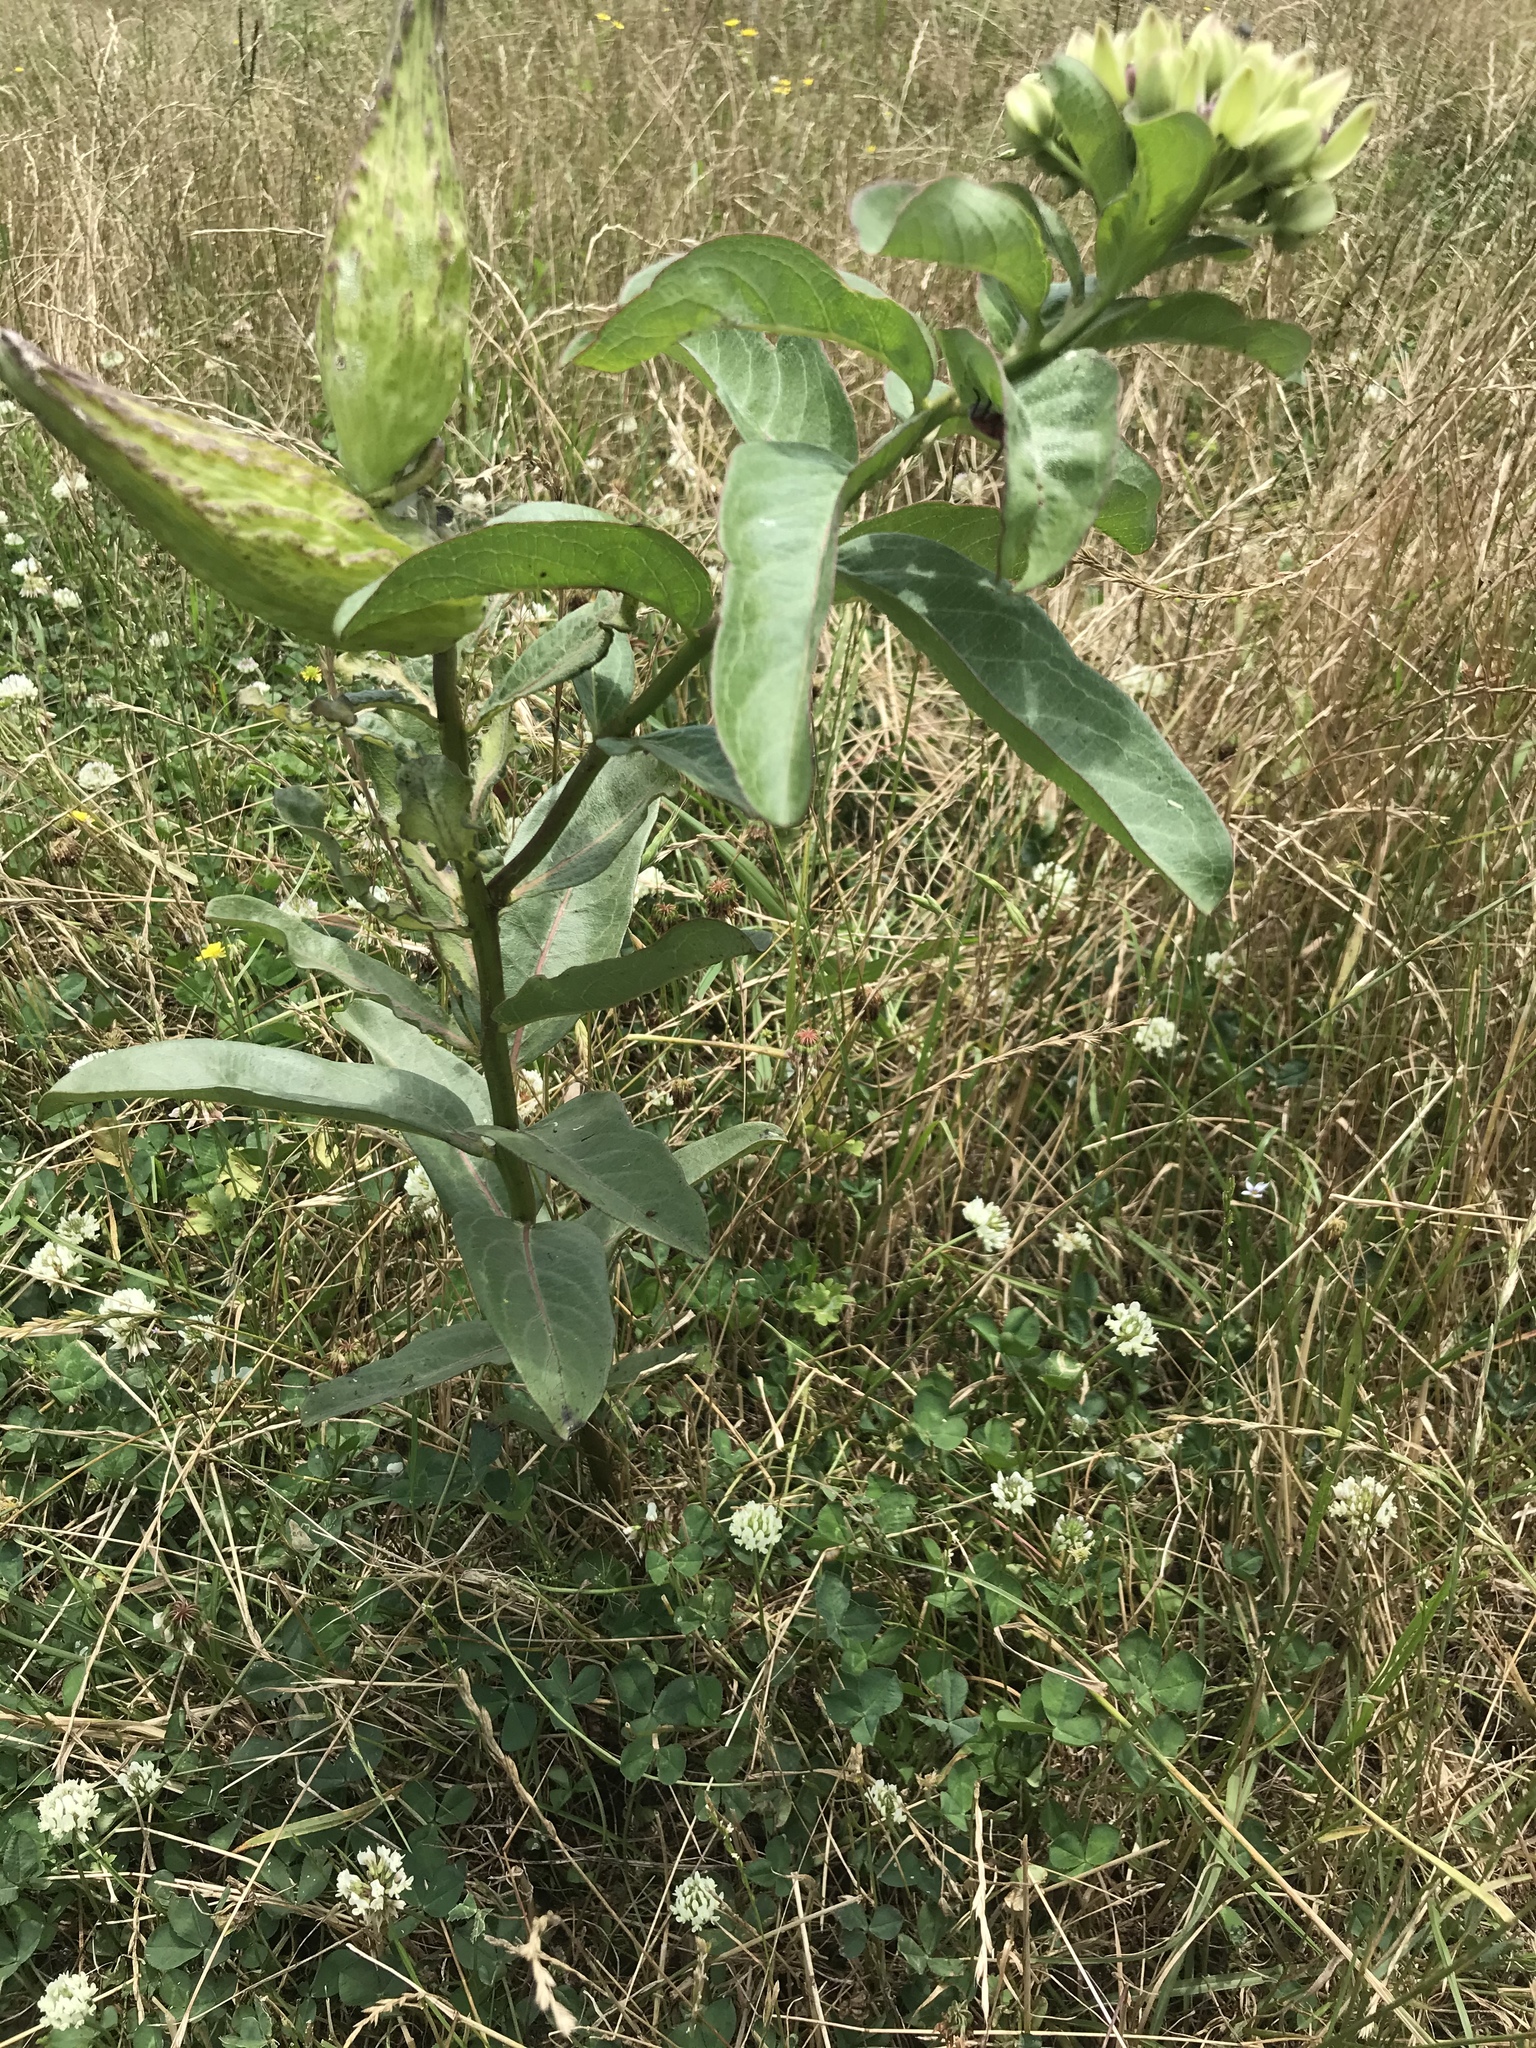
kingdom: Plantae
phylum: Tracheophyta
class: Magnoliopsida
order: Gentianales
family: Apocynaceae
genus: Asclepias
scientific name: Asclepias viridis
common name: Antelope-horns
